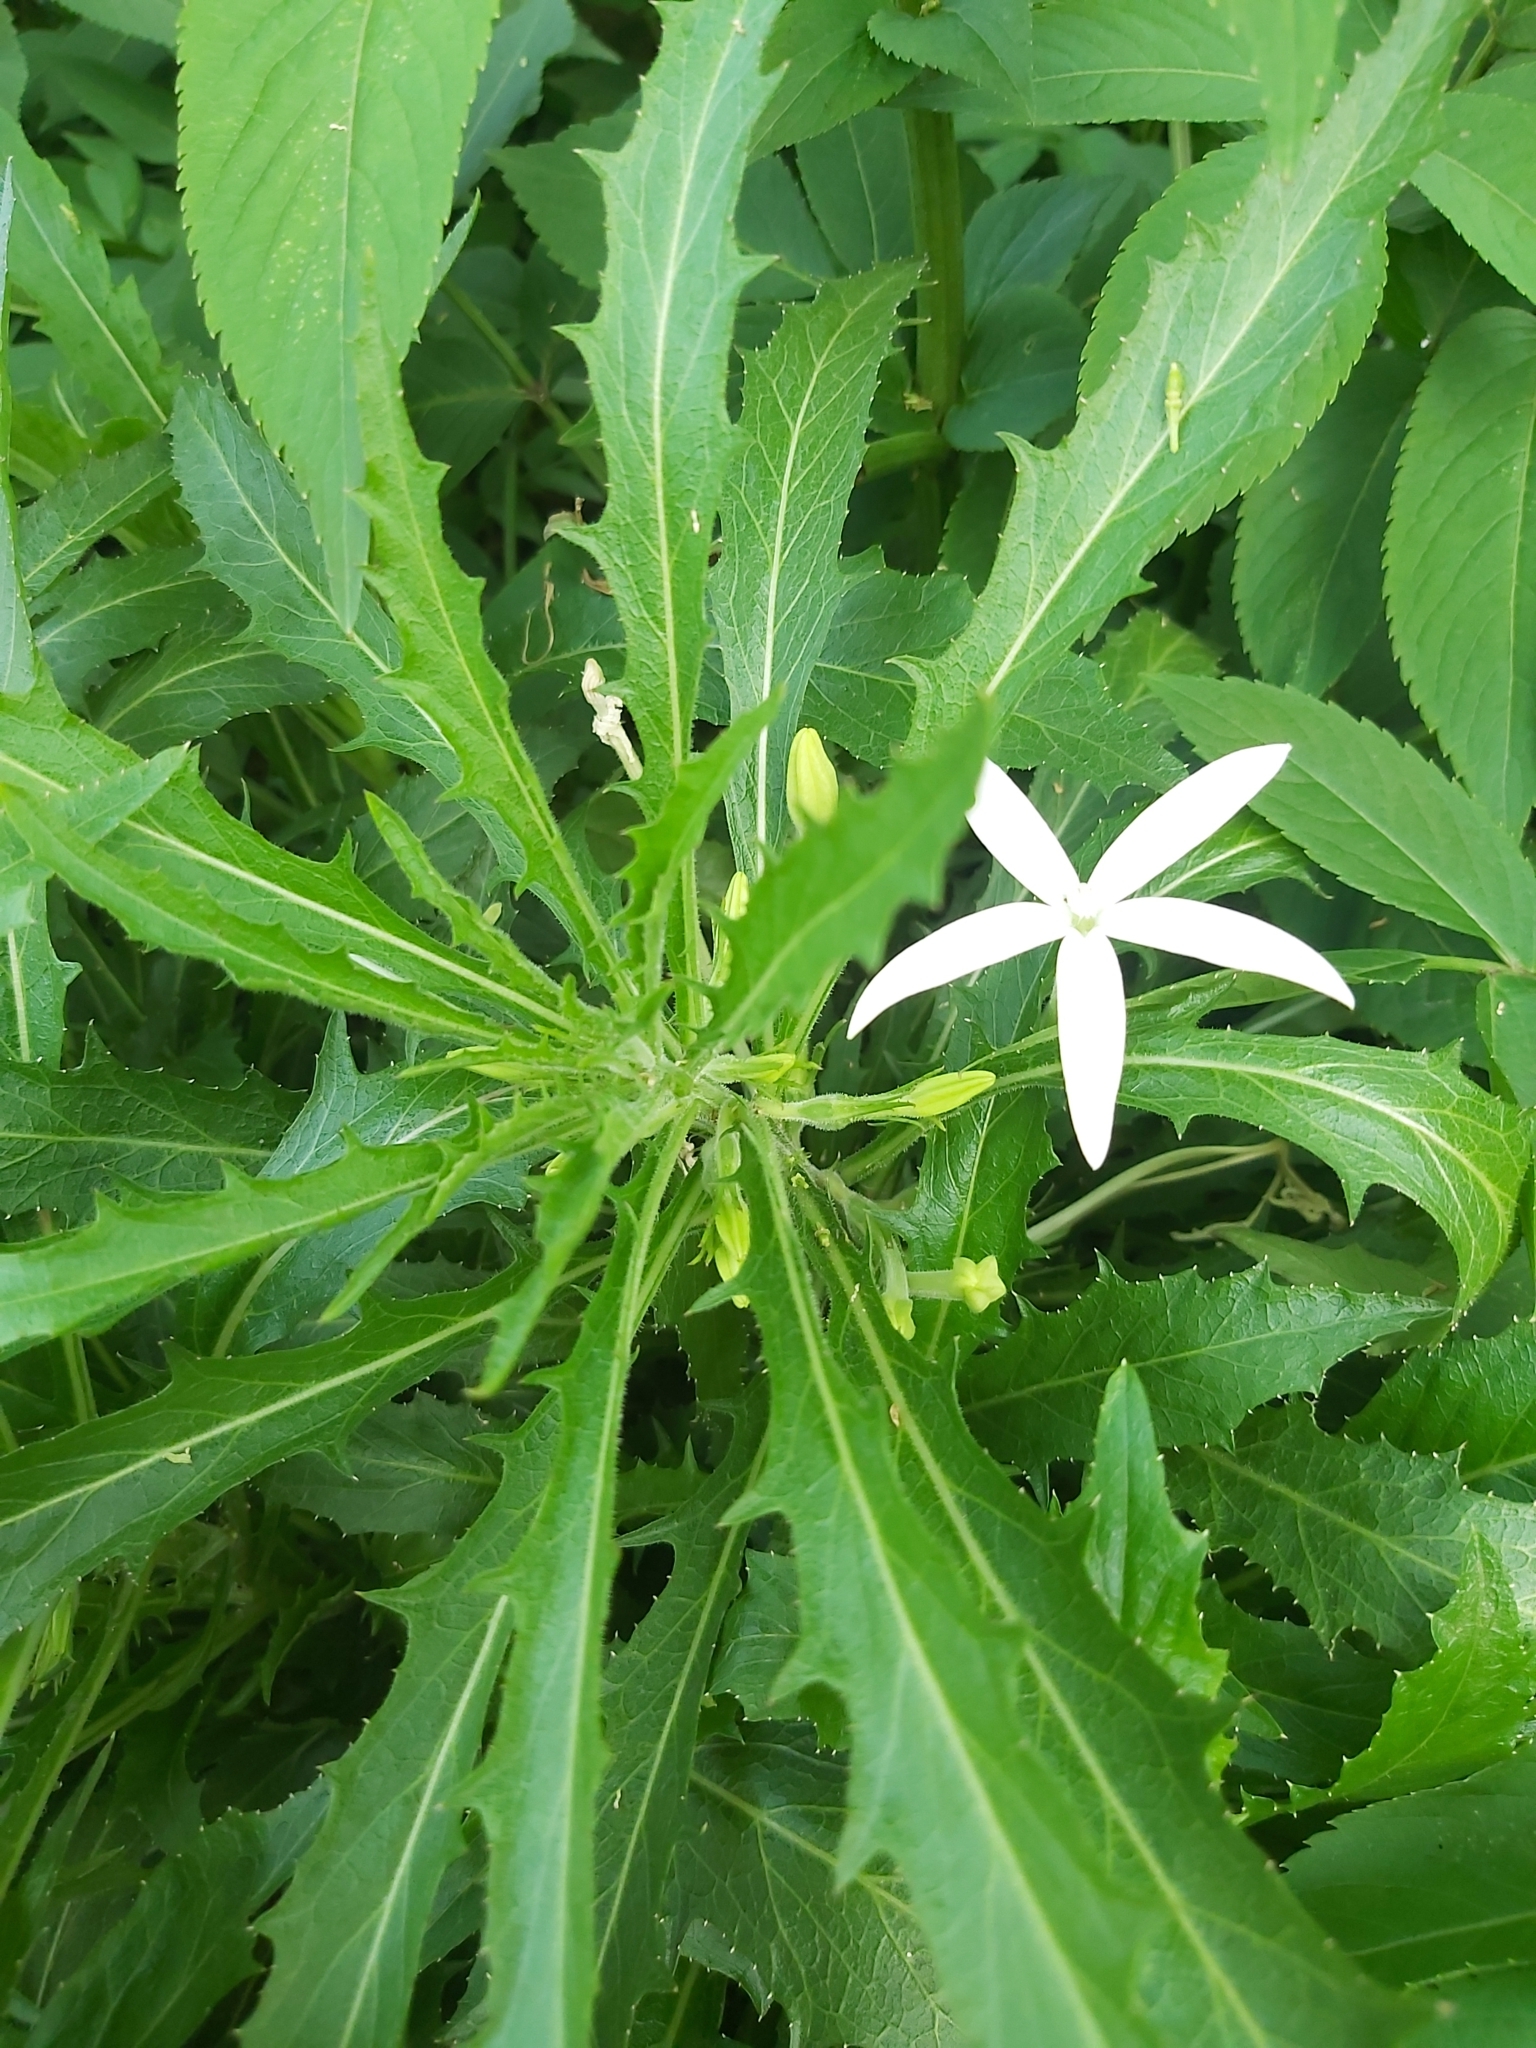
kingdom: Plantae
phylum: Tracheophyta
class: Magnoliopsida
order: Asterales
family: Campanulaceae
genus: Hippobroma
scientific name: Hippobroma longiflora
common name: Madamfate
